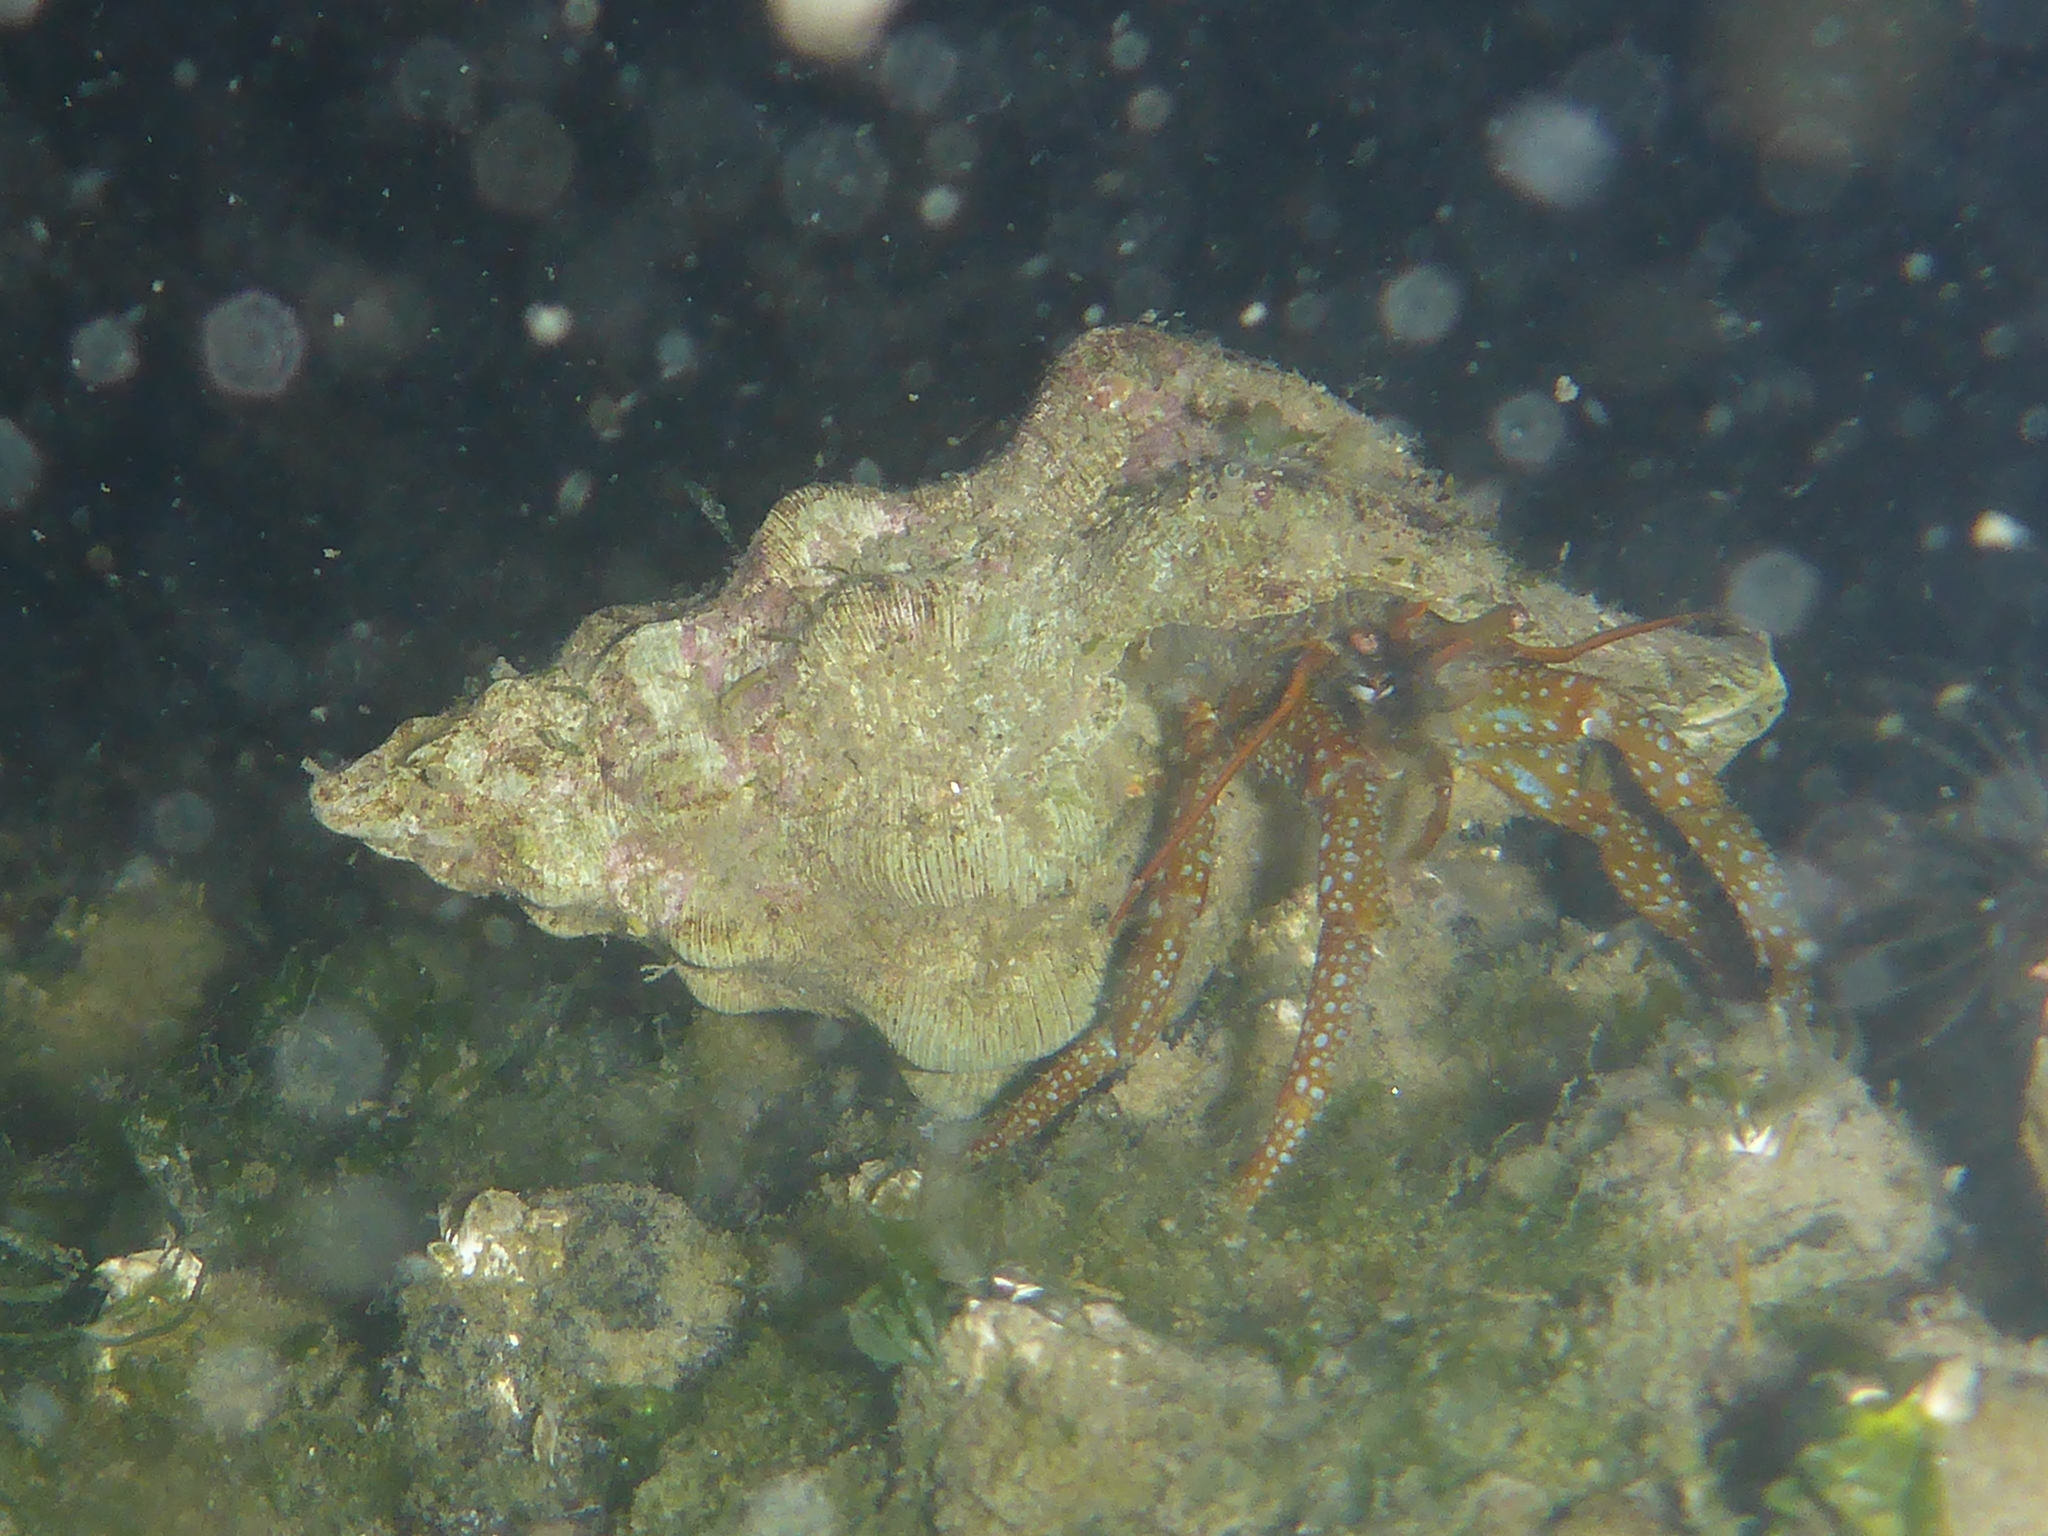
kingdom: Animalia
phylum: Arthropoda
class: Malacostraca
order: Decapoda
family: Paguridae
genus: Pagurus
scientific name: Pagurus granosimanus
